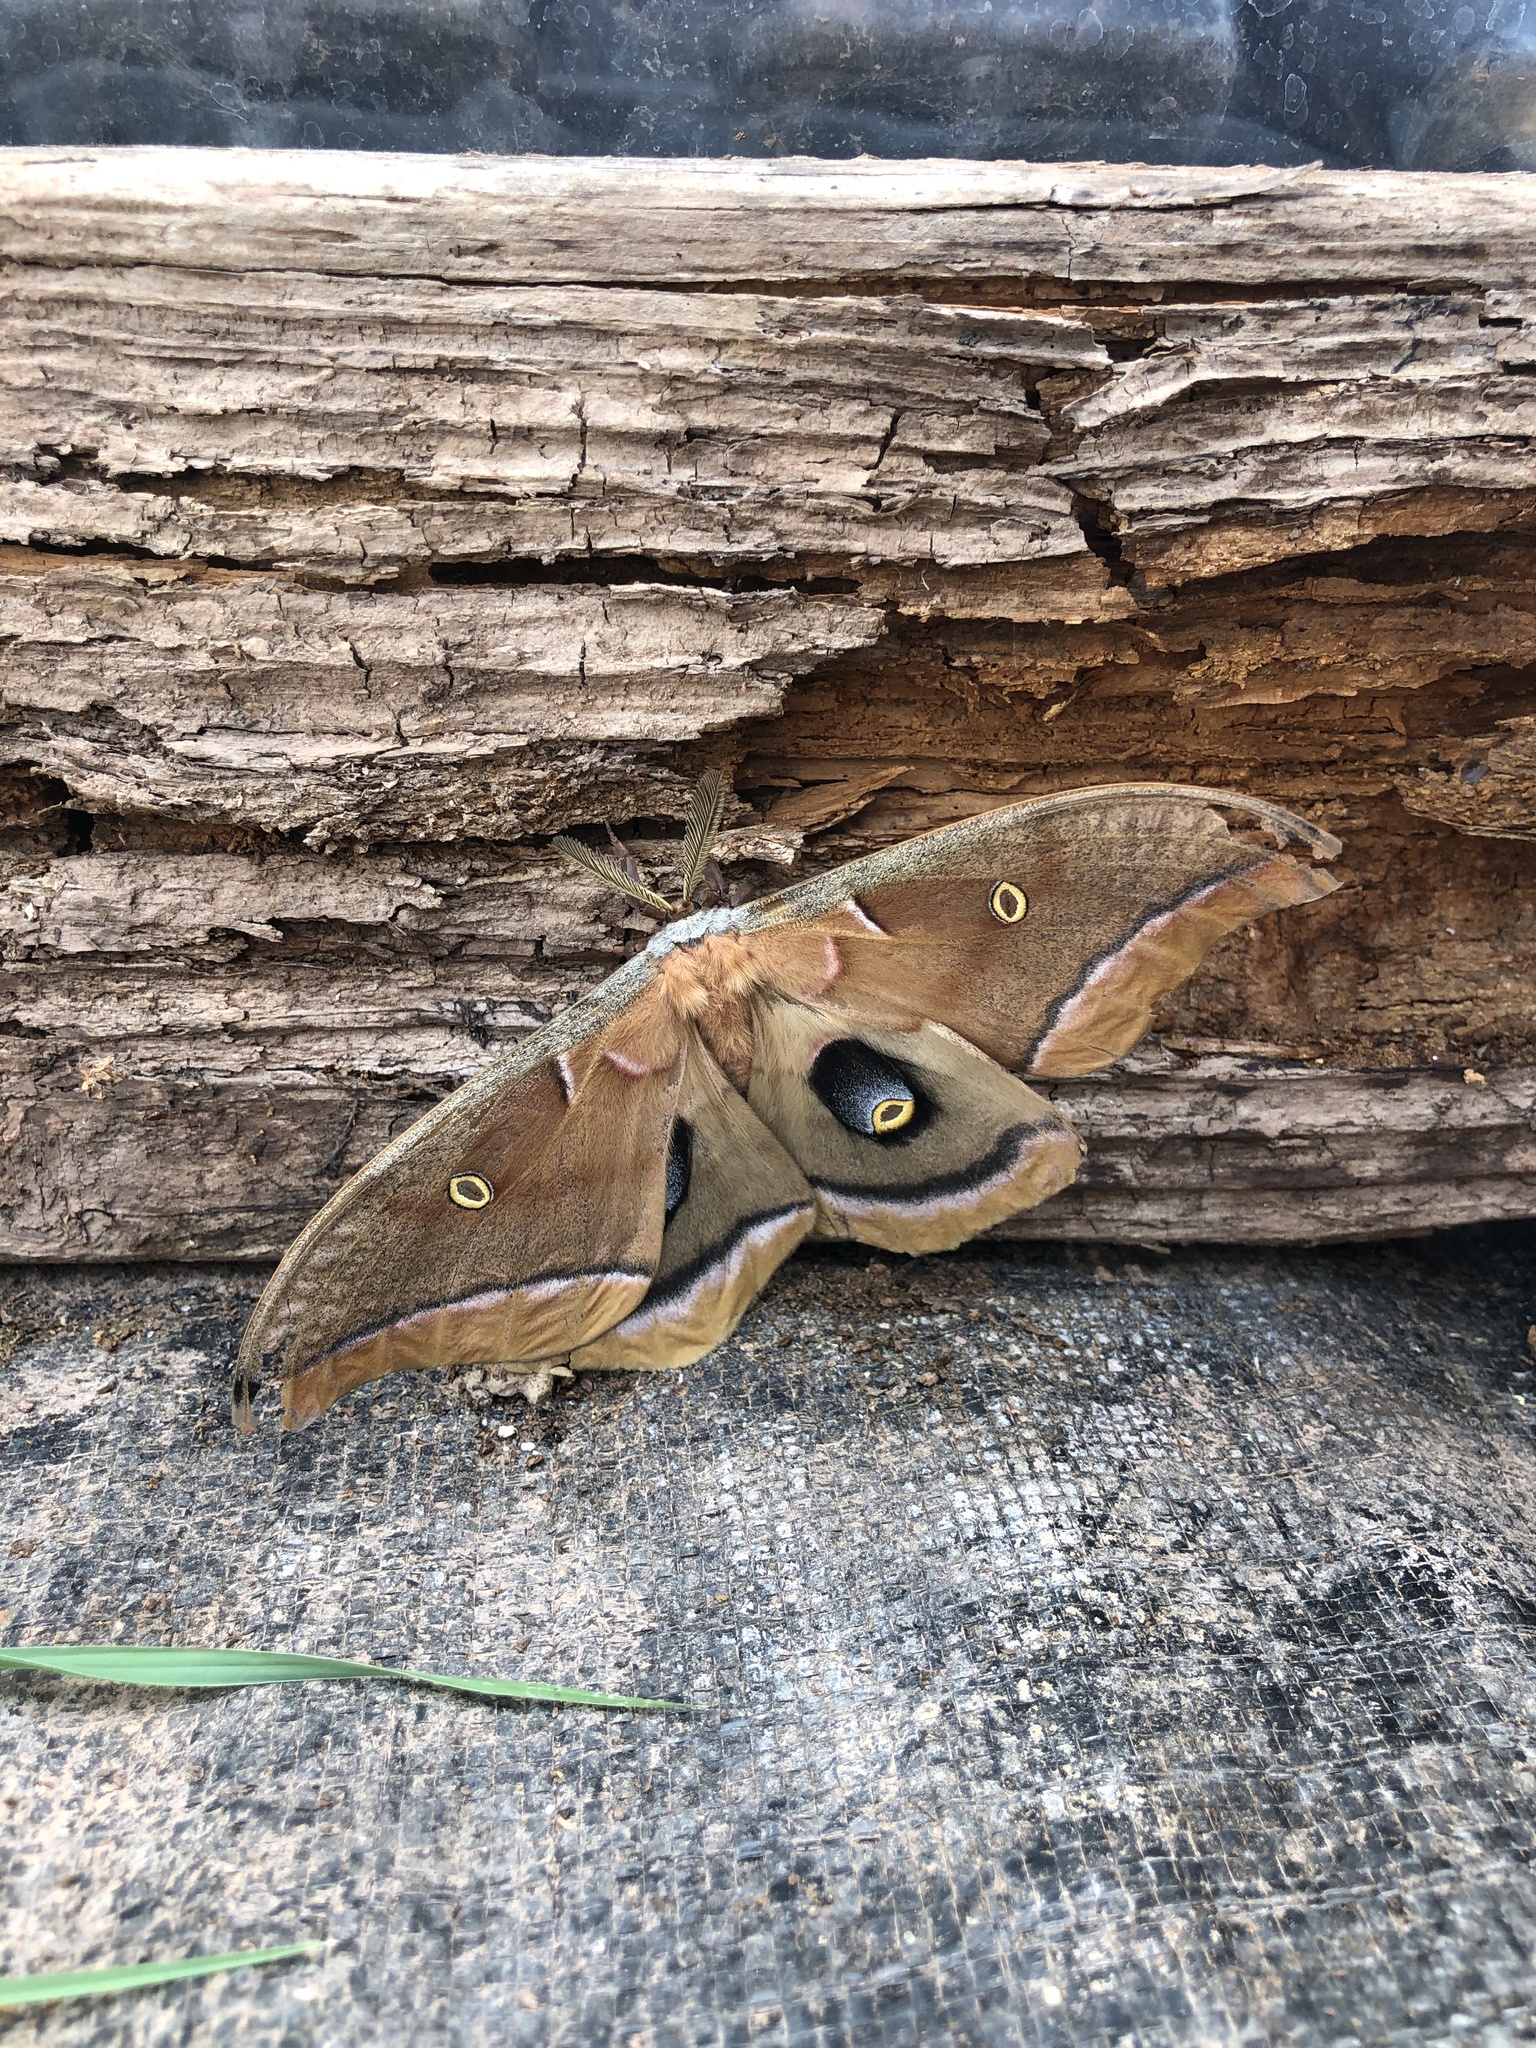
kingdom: Animalia
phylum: Arthropoda
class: Insecta
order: Lepidoptera
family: Saturniidae
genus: Antheraea
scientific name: Antheraea polyphemus
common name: Polyphemus moth
